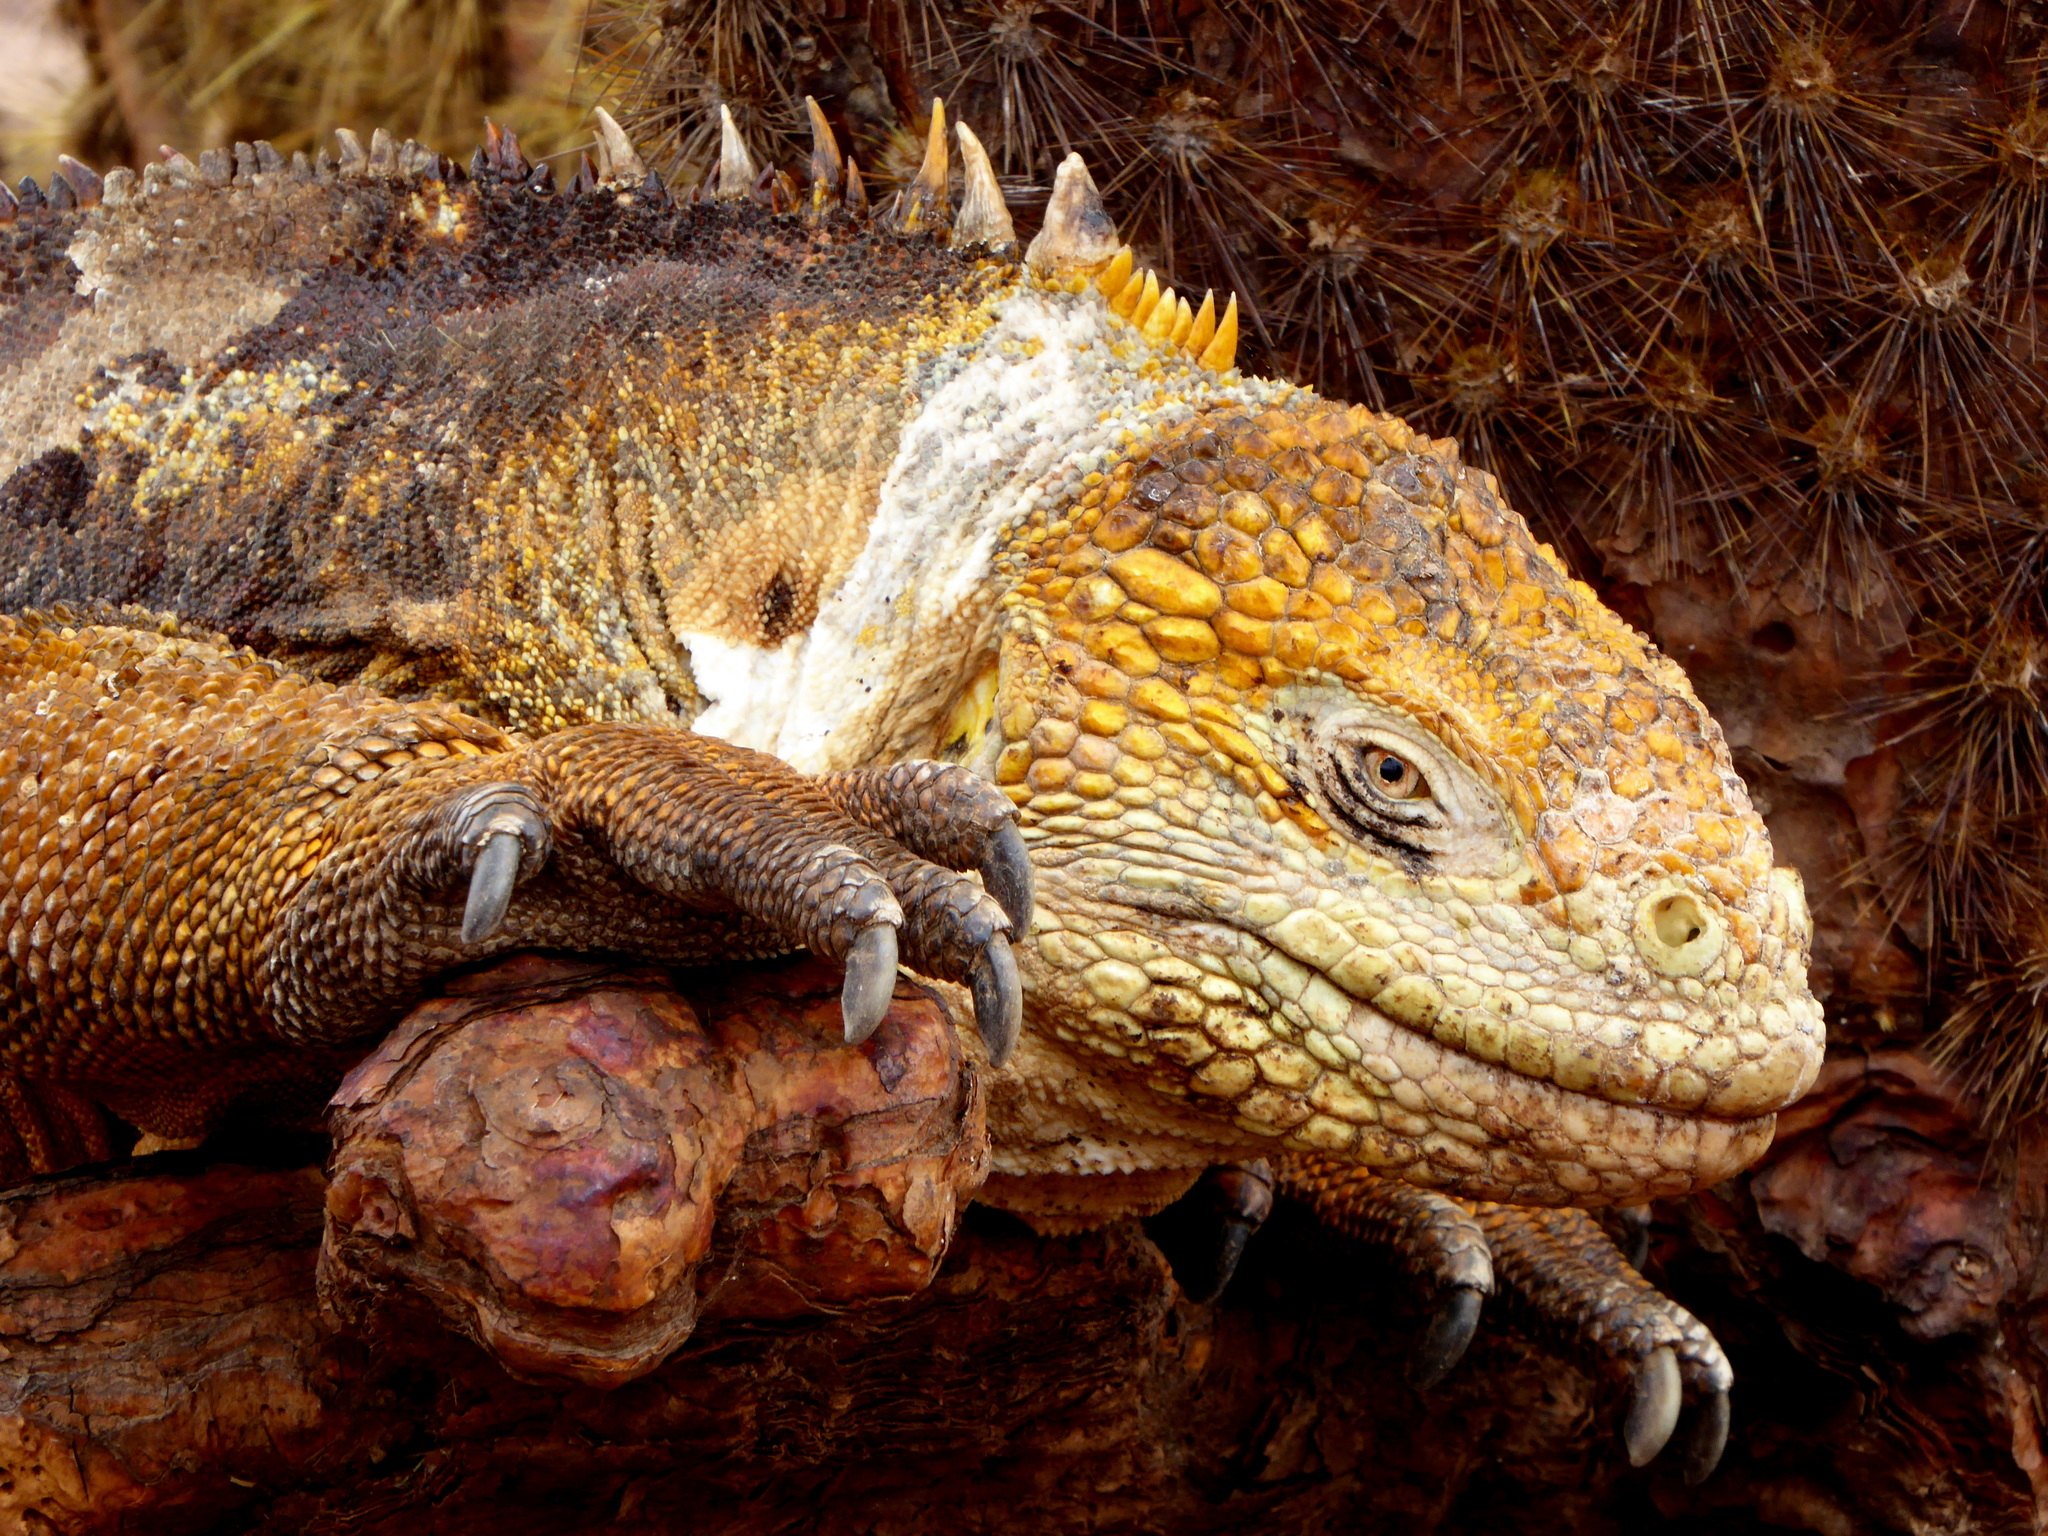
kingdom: Animalia
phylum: Chordata
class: Squamata
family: Iguanidae
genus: Conolophus
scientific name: Conolophus subcristatus
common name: Galapagos land iguana
